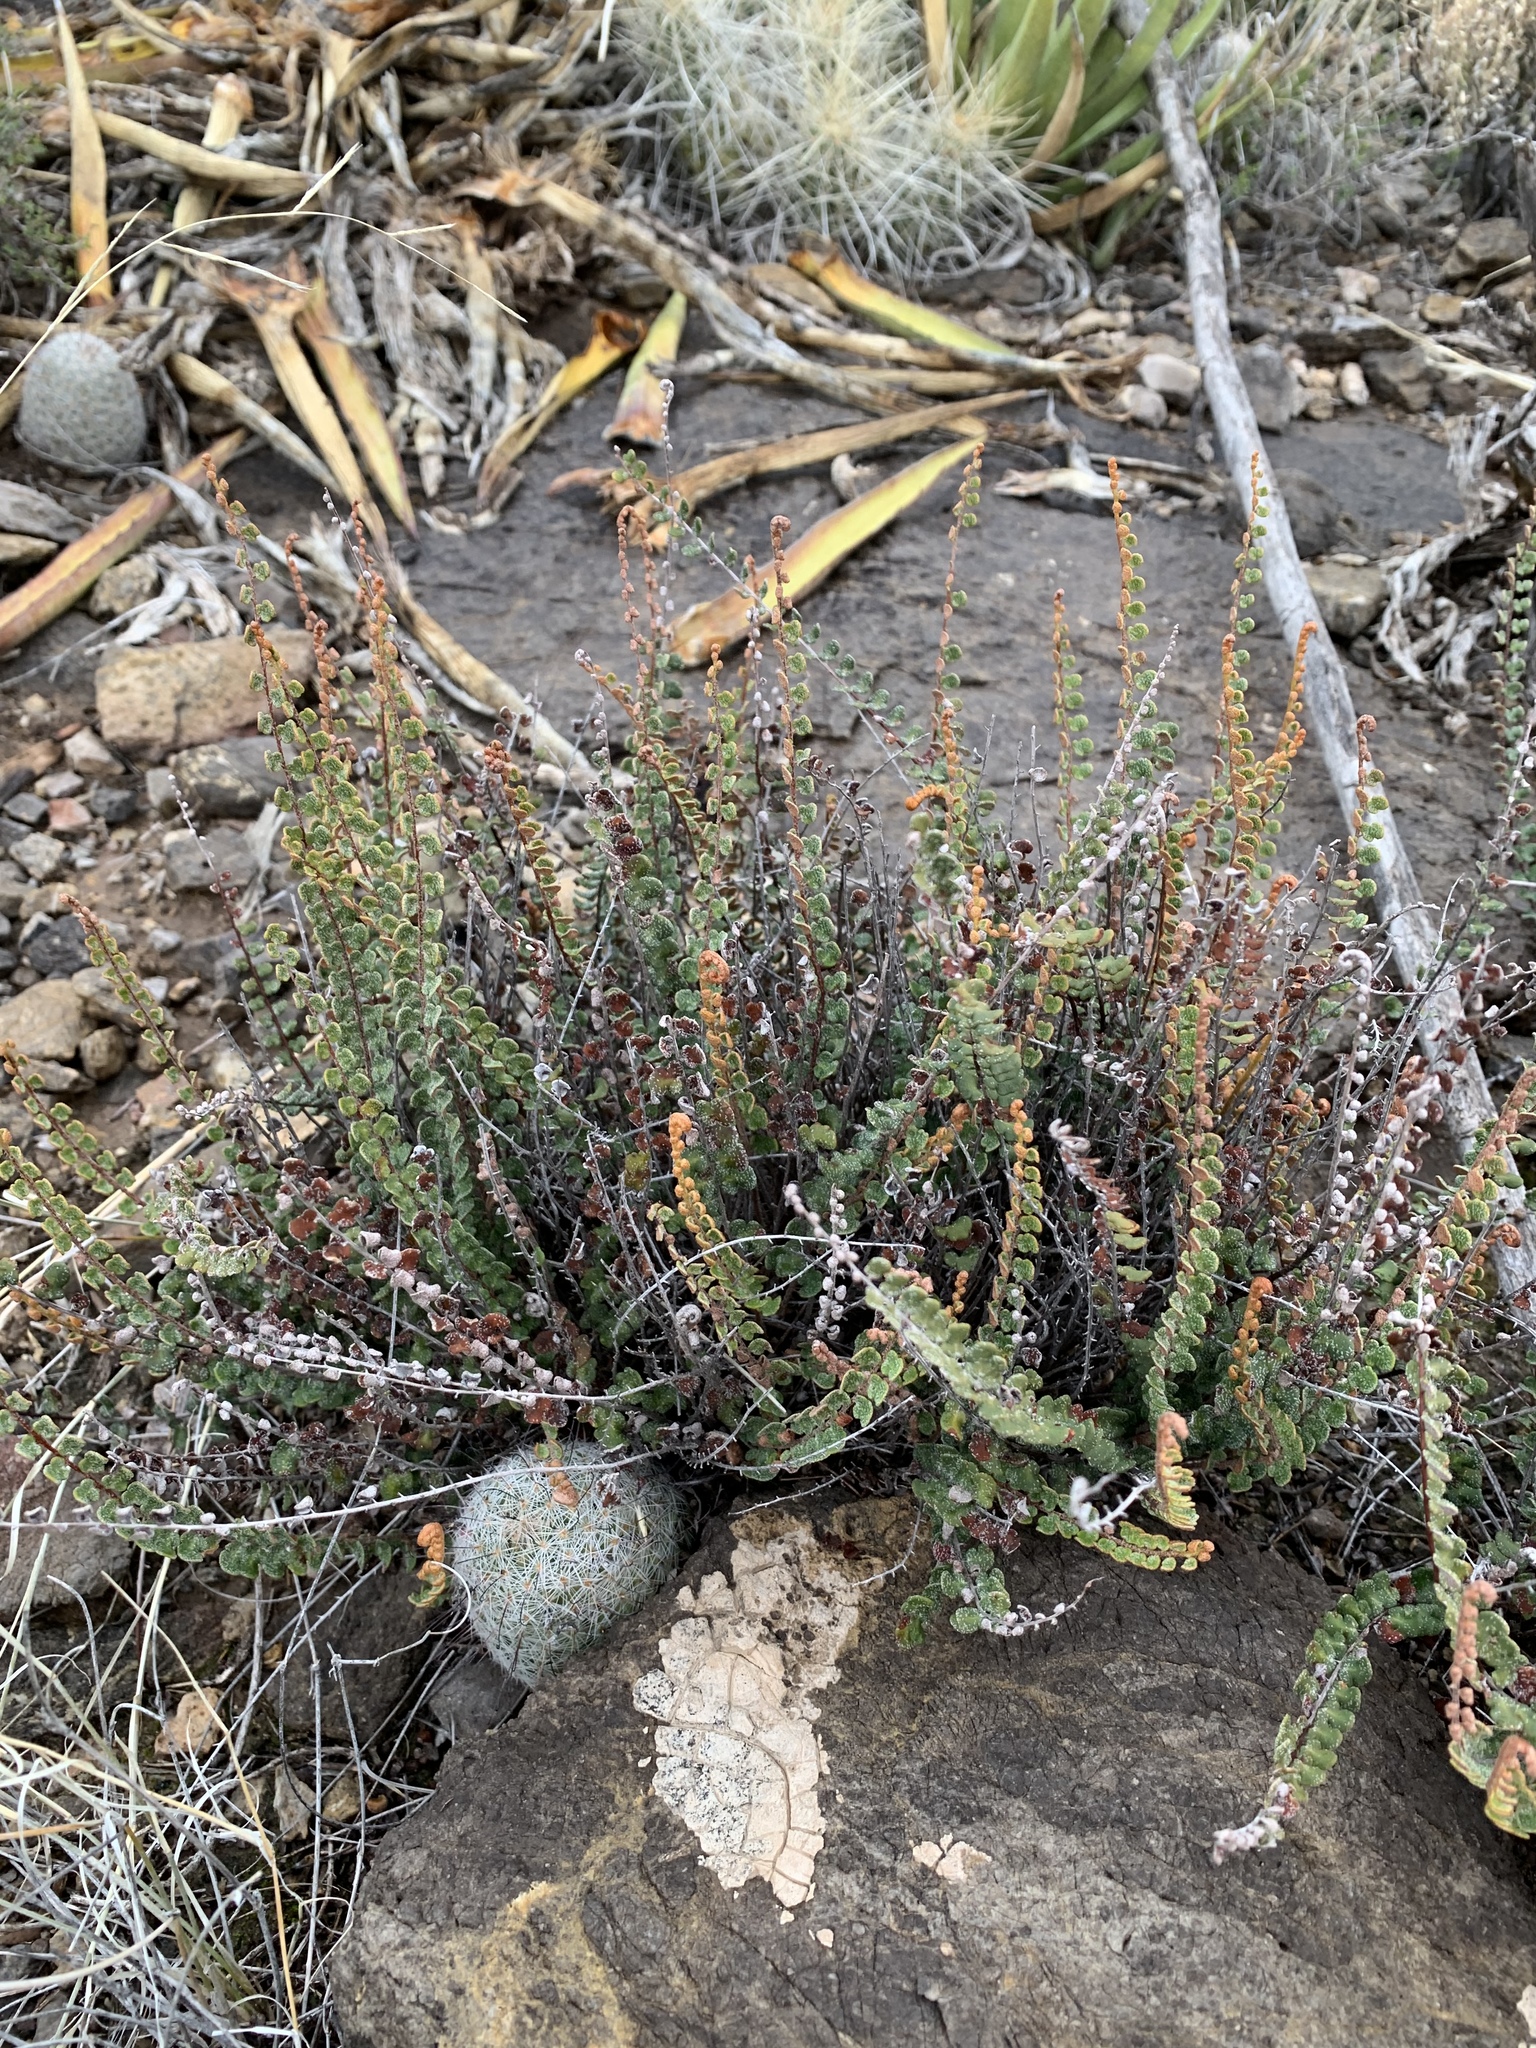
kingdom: Plantae
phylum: Tracheophyta
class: Polypodiopsida
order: Polypodiales
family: Pteridaceae
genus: Astrolepis
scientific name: Astrolepis cochisensis
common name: Scaly cloak fern
